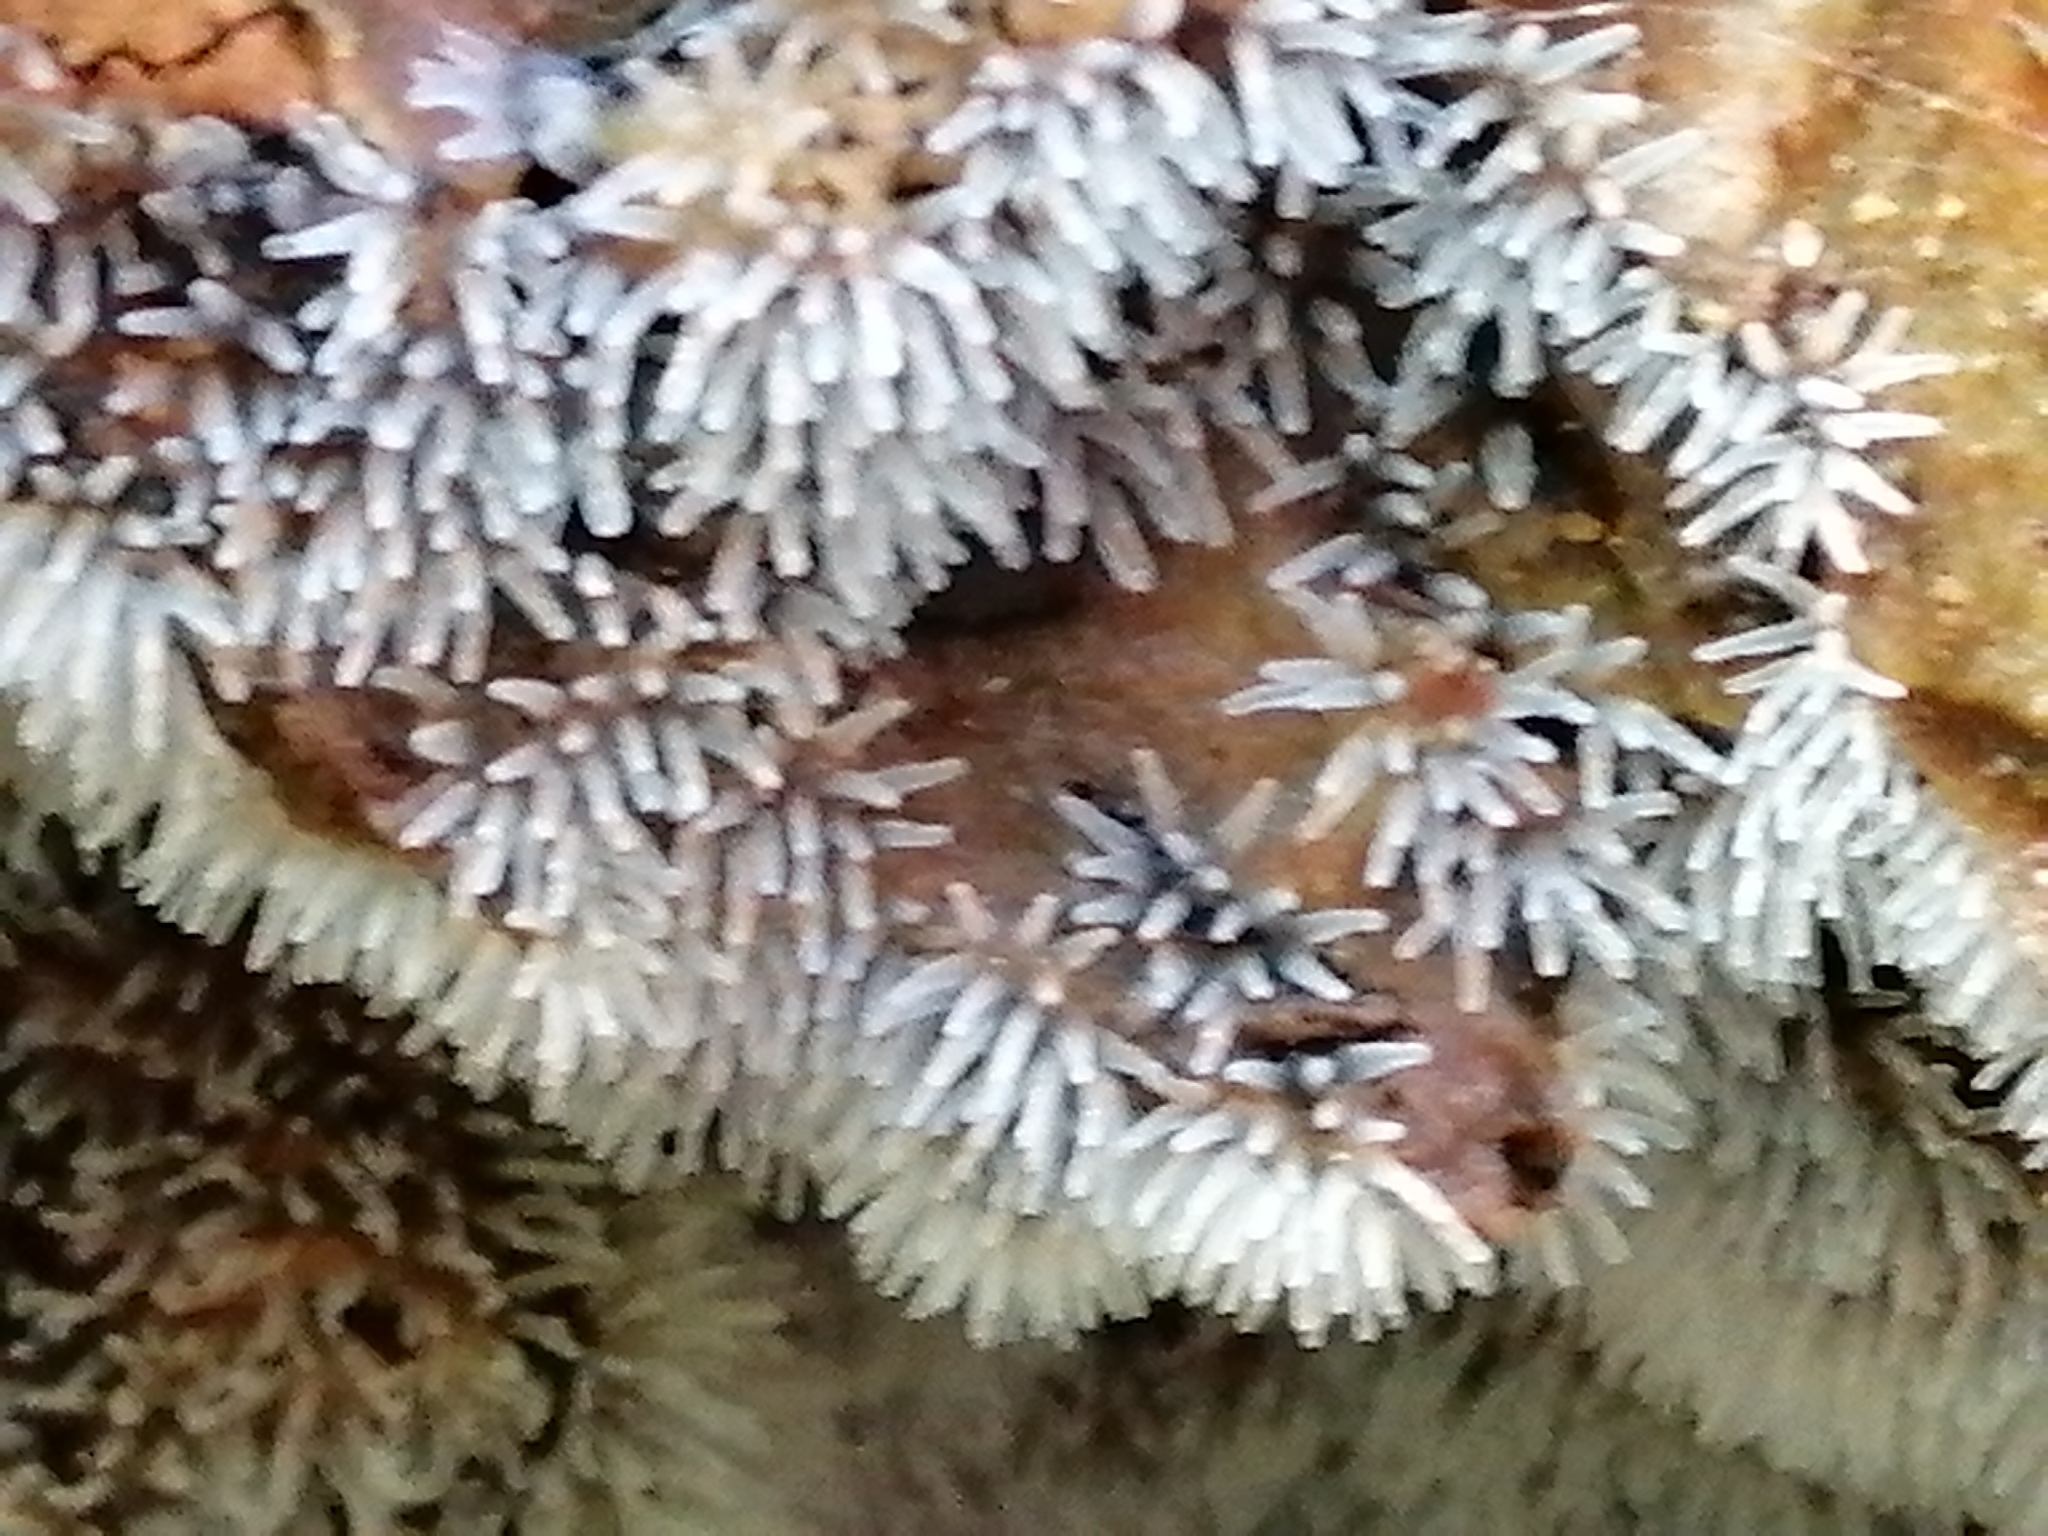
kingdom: Protozoa
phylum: Mycetozoa
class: Protosteliomycetes
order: Ceratiomyxales
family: Ceratiomyxaceae
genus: Ceratiomyxa
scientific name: Ceratiomyxa fruticulosa
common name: Honeycomb coral slime mold
